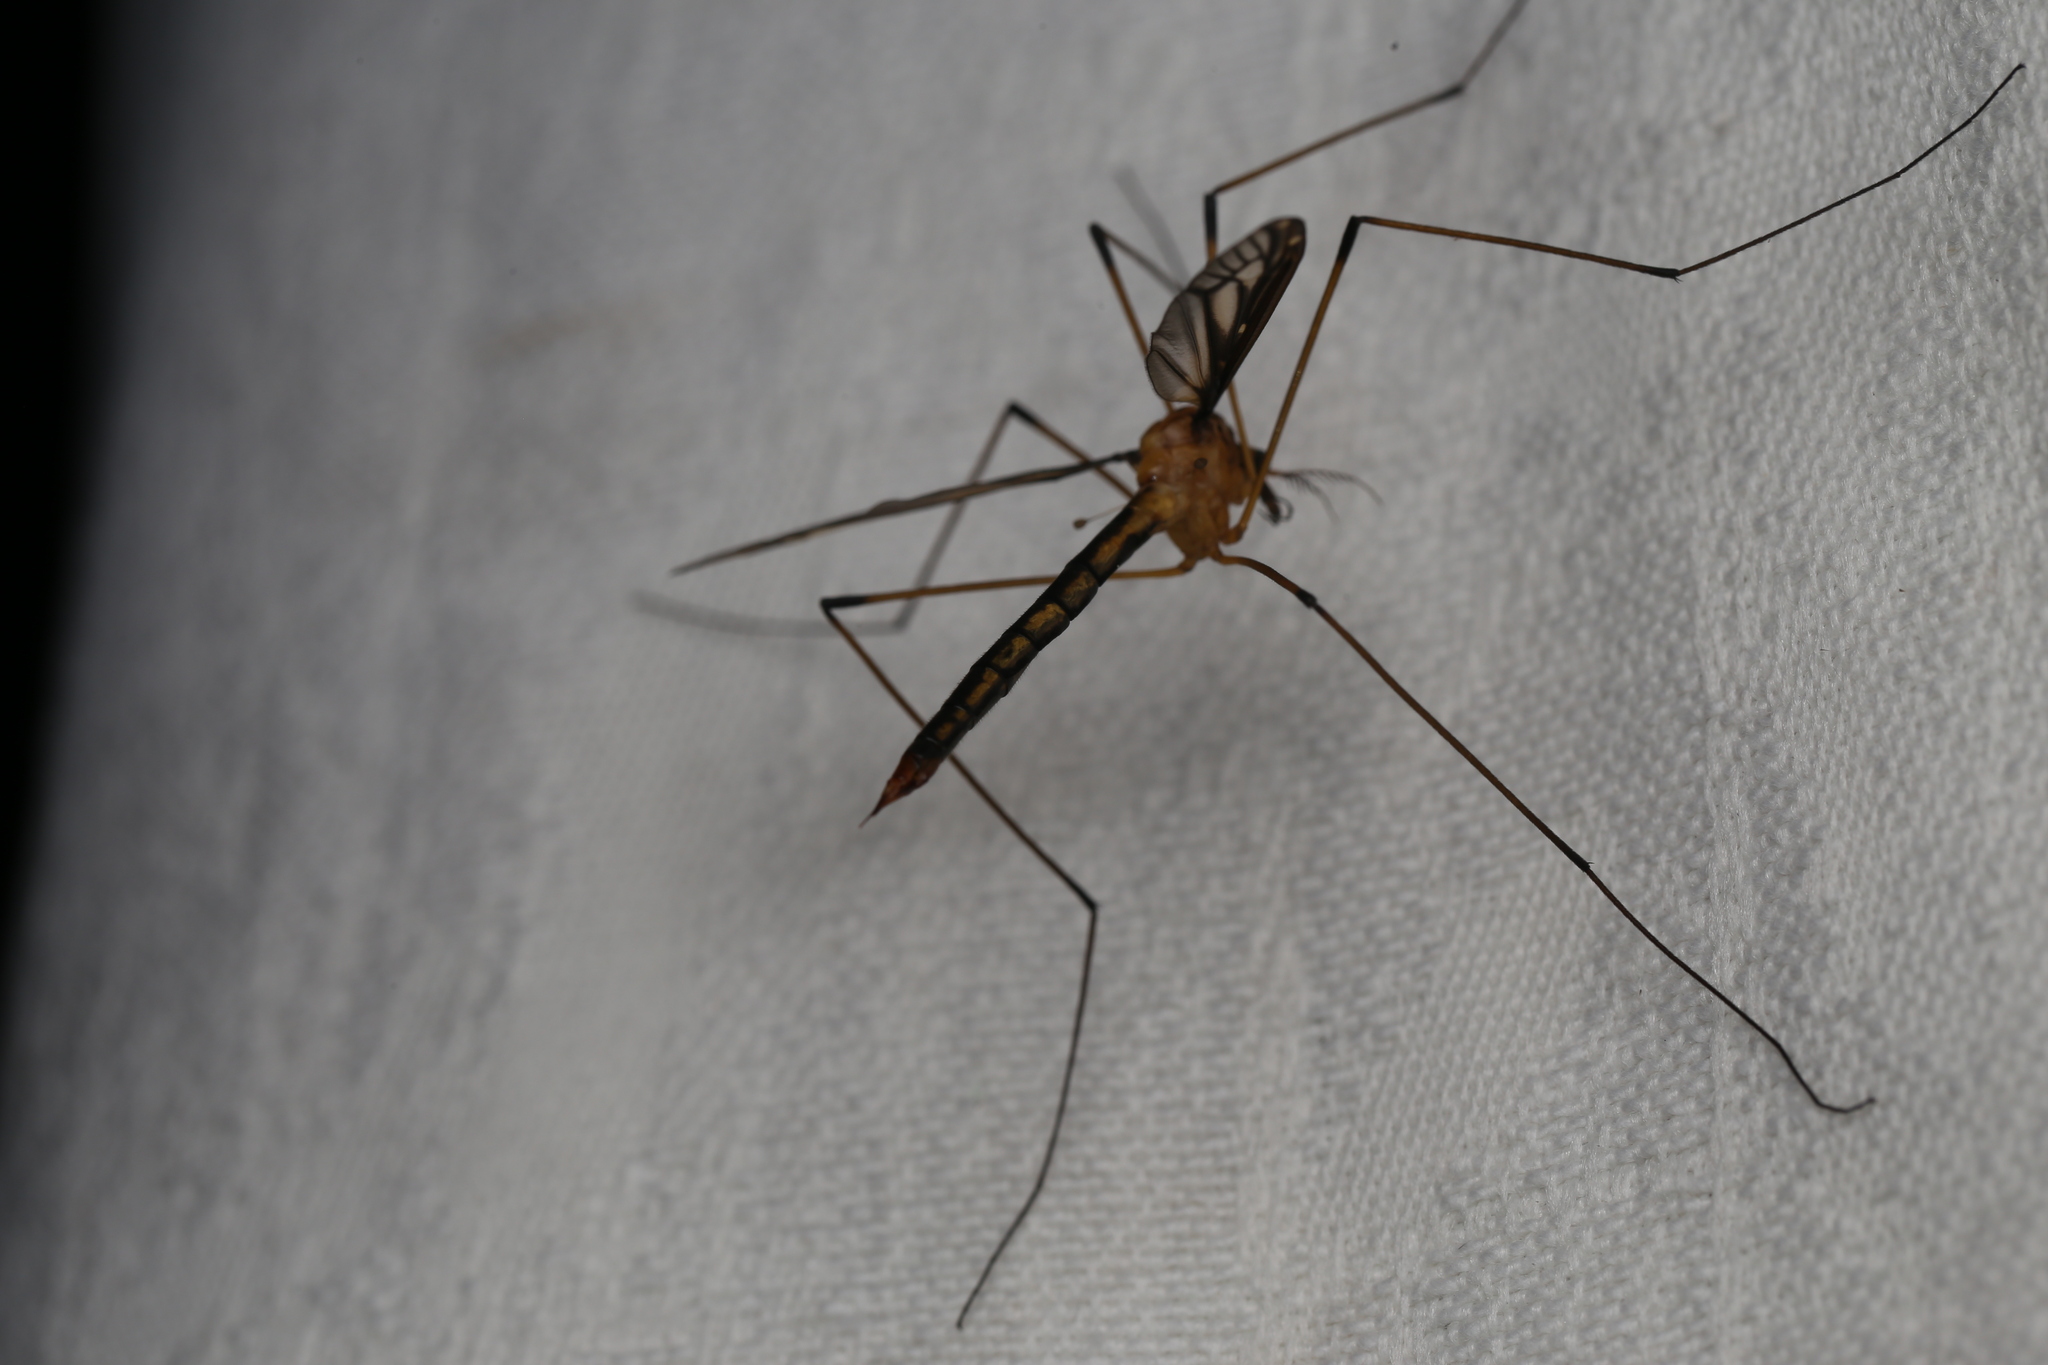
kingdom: Animalia
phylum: Arthropoda
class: Insecta
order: Diptera
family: Tipulidae
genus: Ptilogyna
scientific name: Ptilogyna ramicornis
